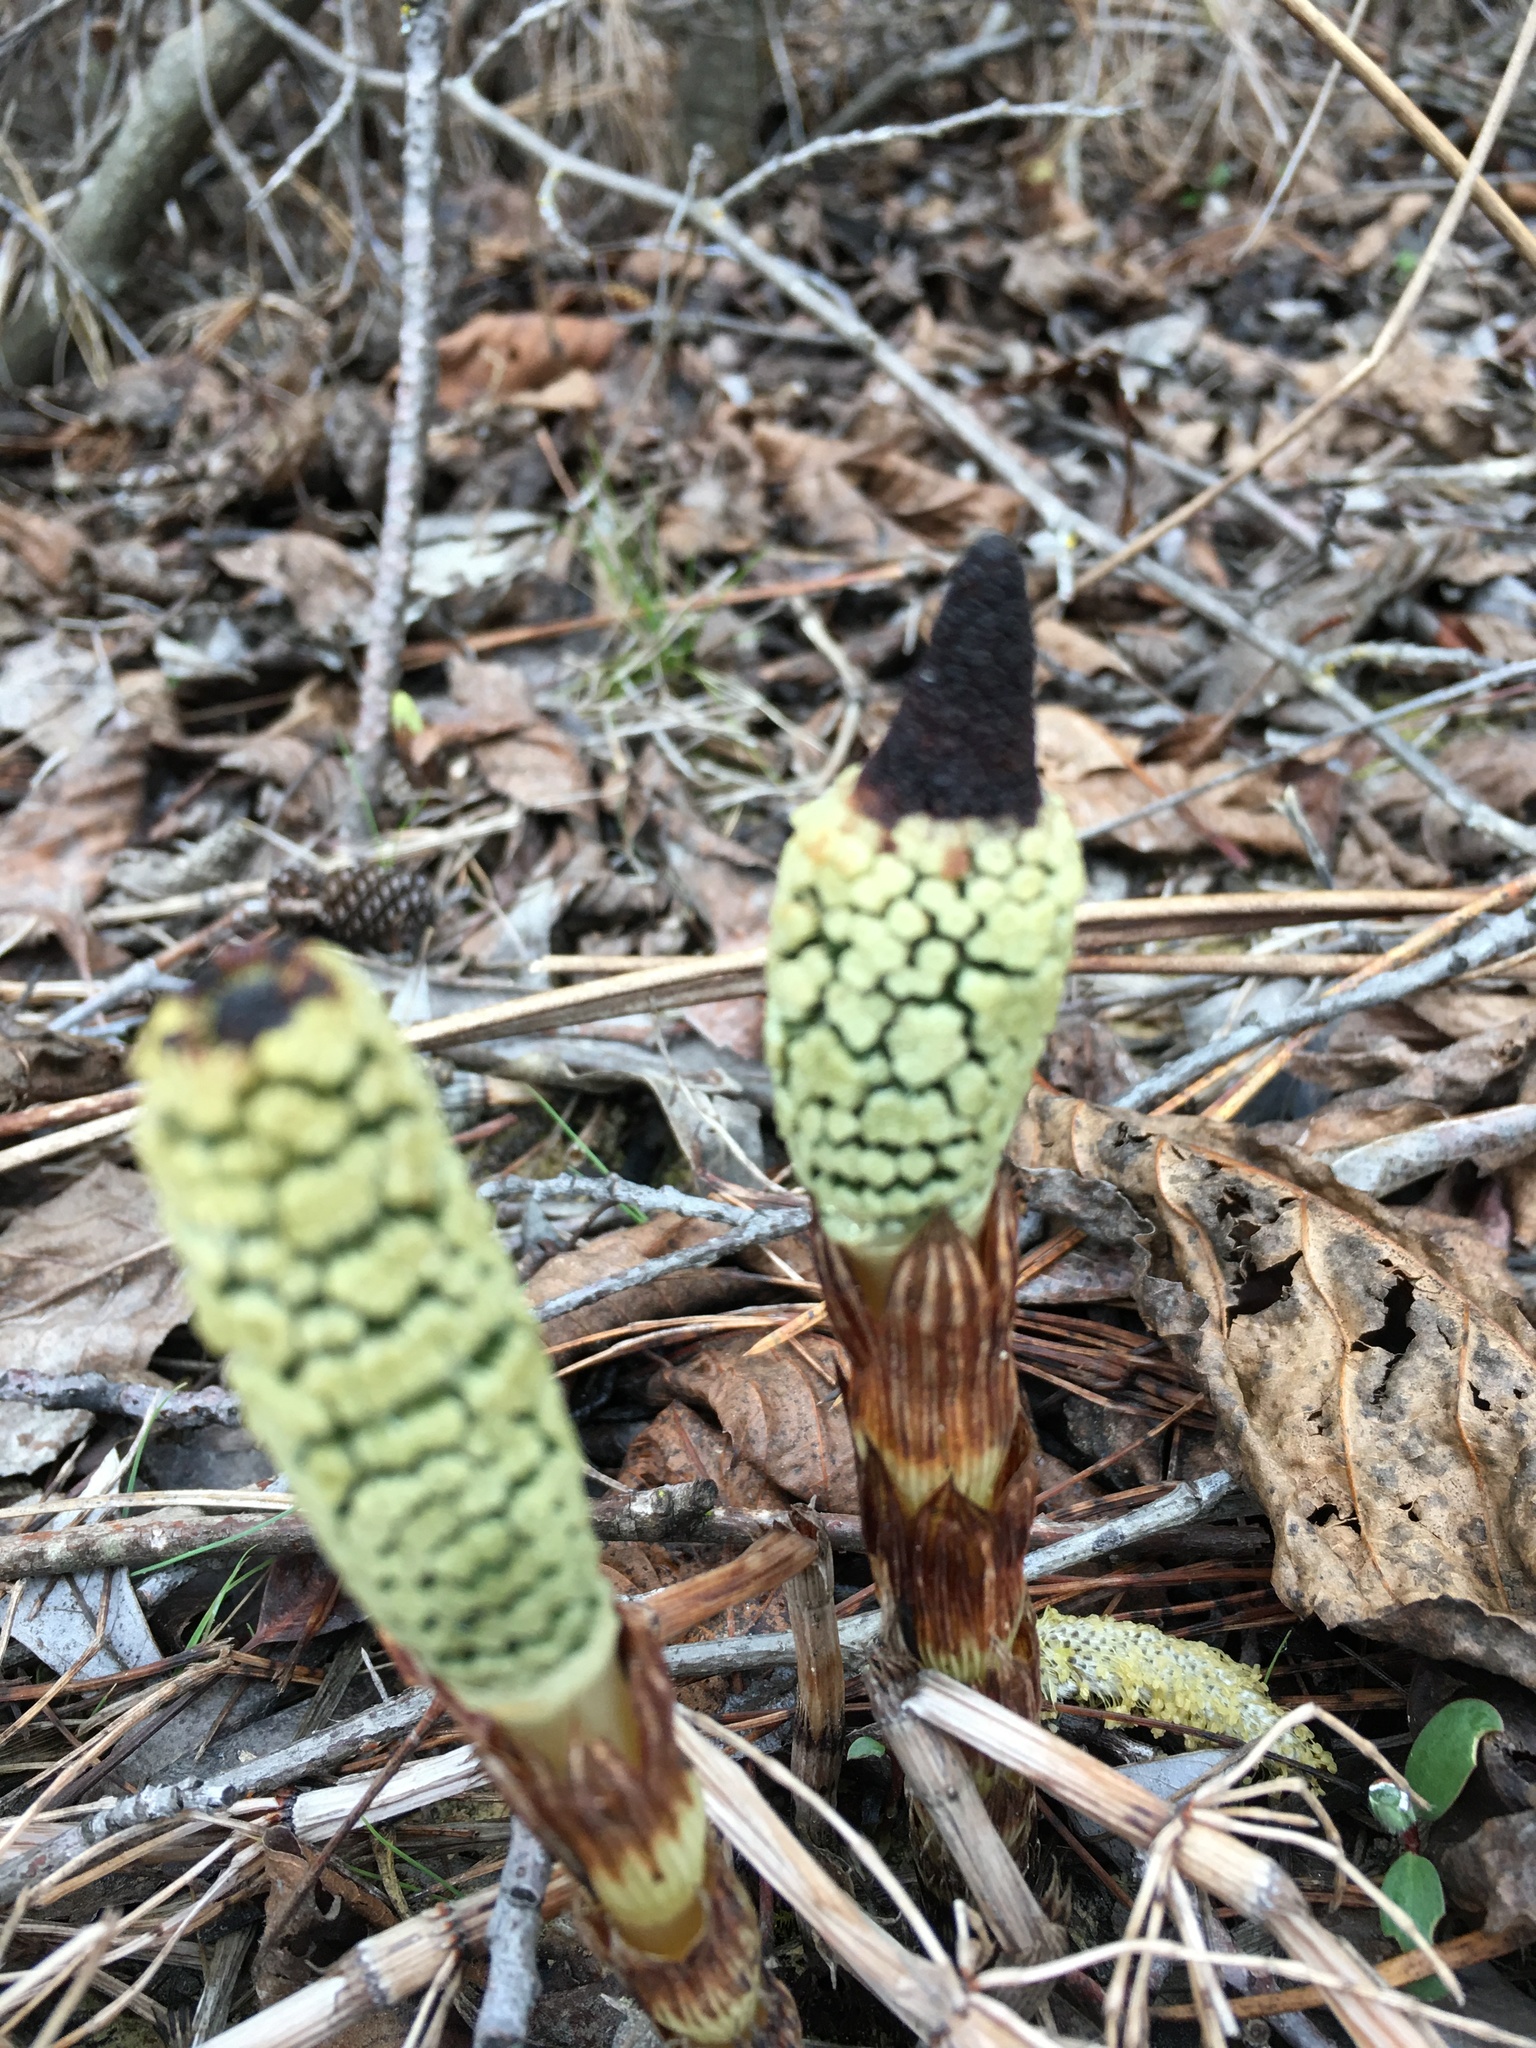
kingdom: Plantae
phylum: Tracheophyta
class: Polypodiopsida
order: Equisetales
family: Equisetaceae
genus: Equisetum
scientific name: Equisetum braunii
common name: Braun's horsetail
